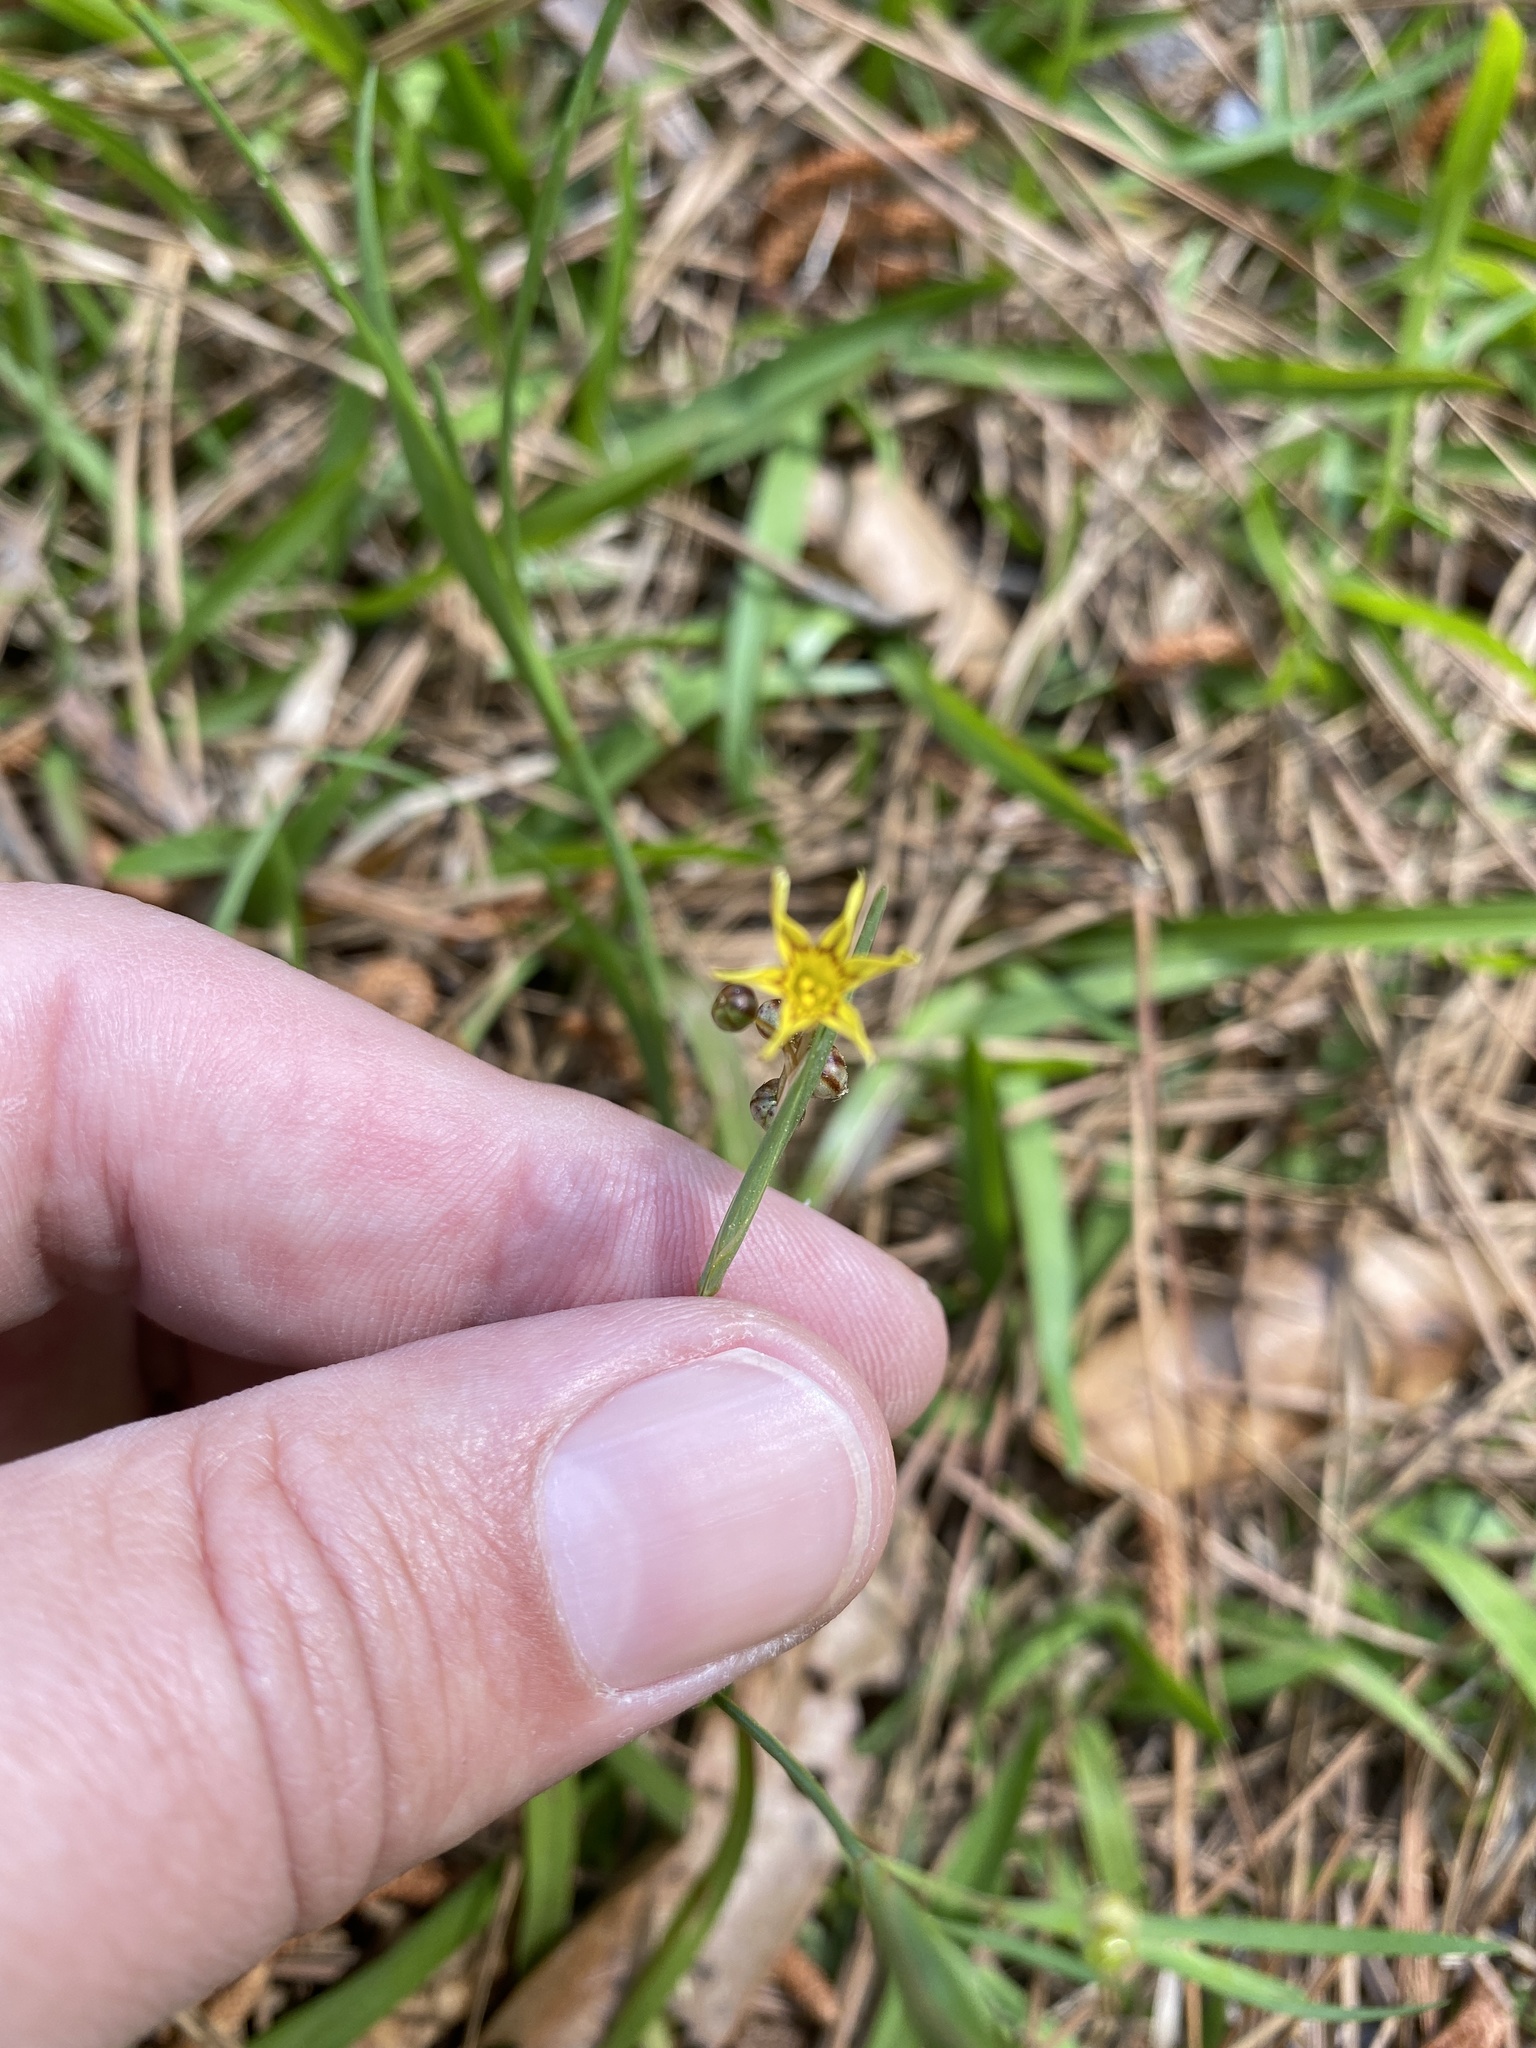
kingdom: Plantae
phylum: Tracheophyta
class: Liliopsida
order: Asparagales
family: Iridaceae
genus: Sisyrinchium
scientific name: Sisyrinchium micranthum
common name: Bermuda pigroot
